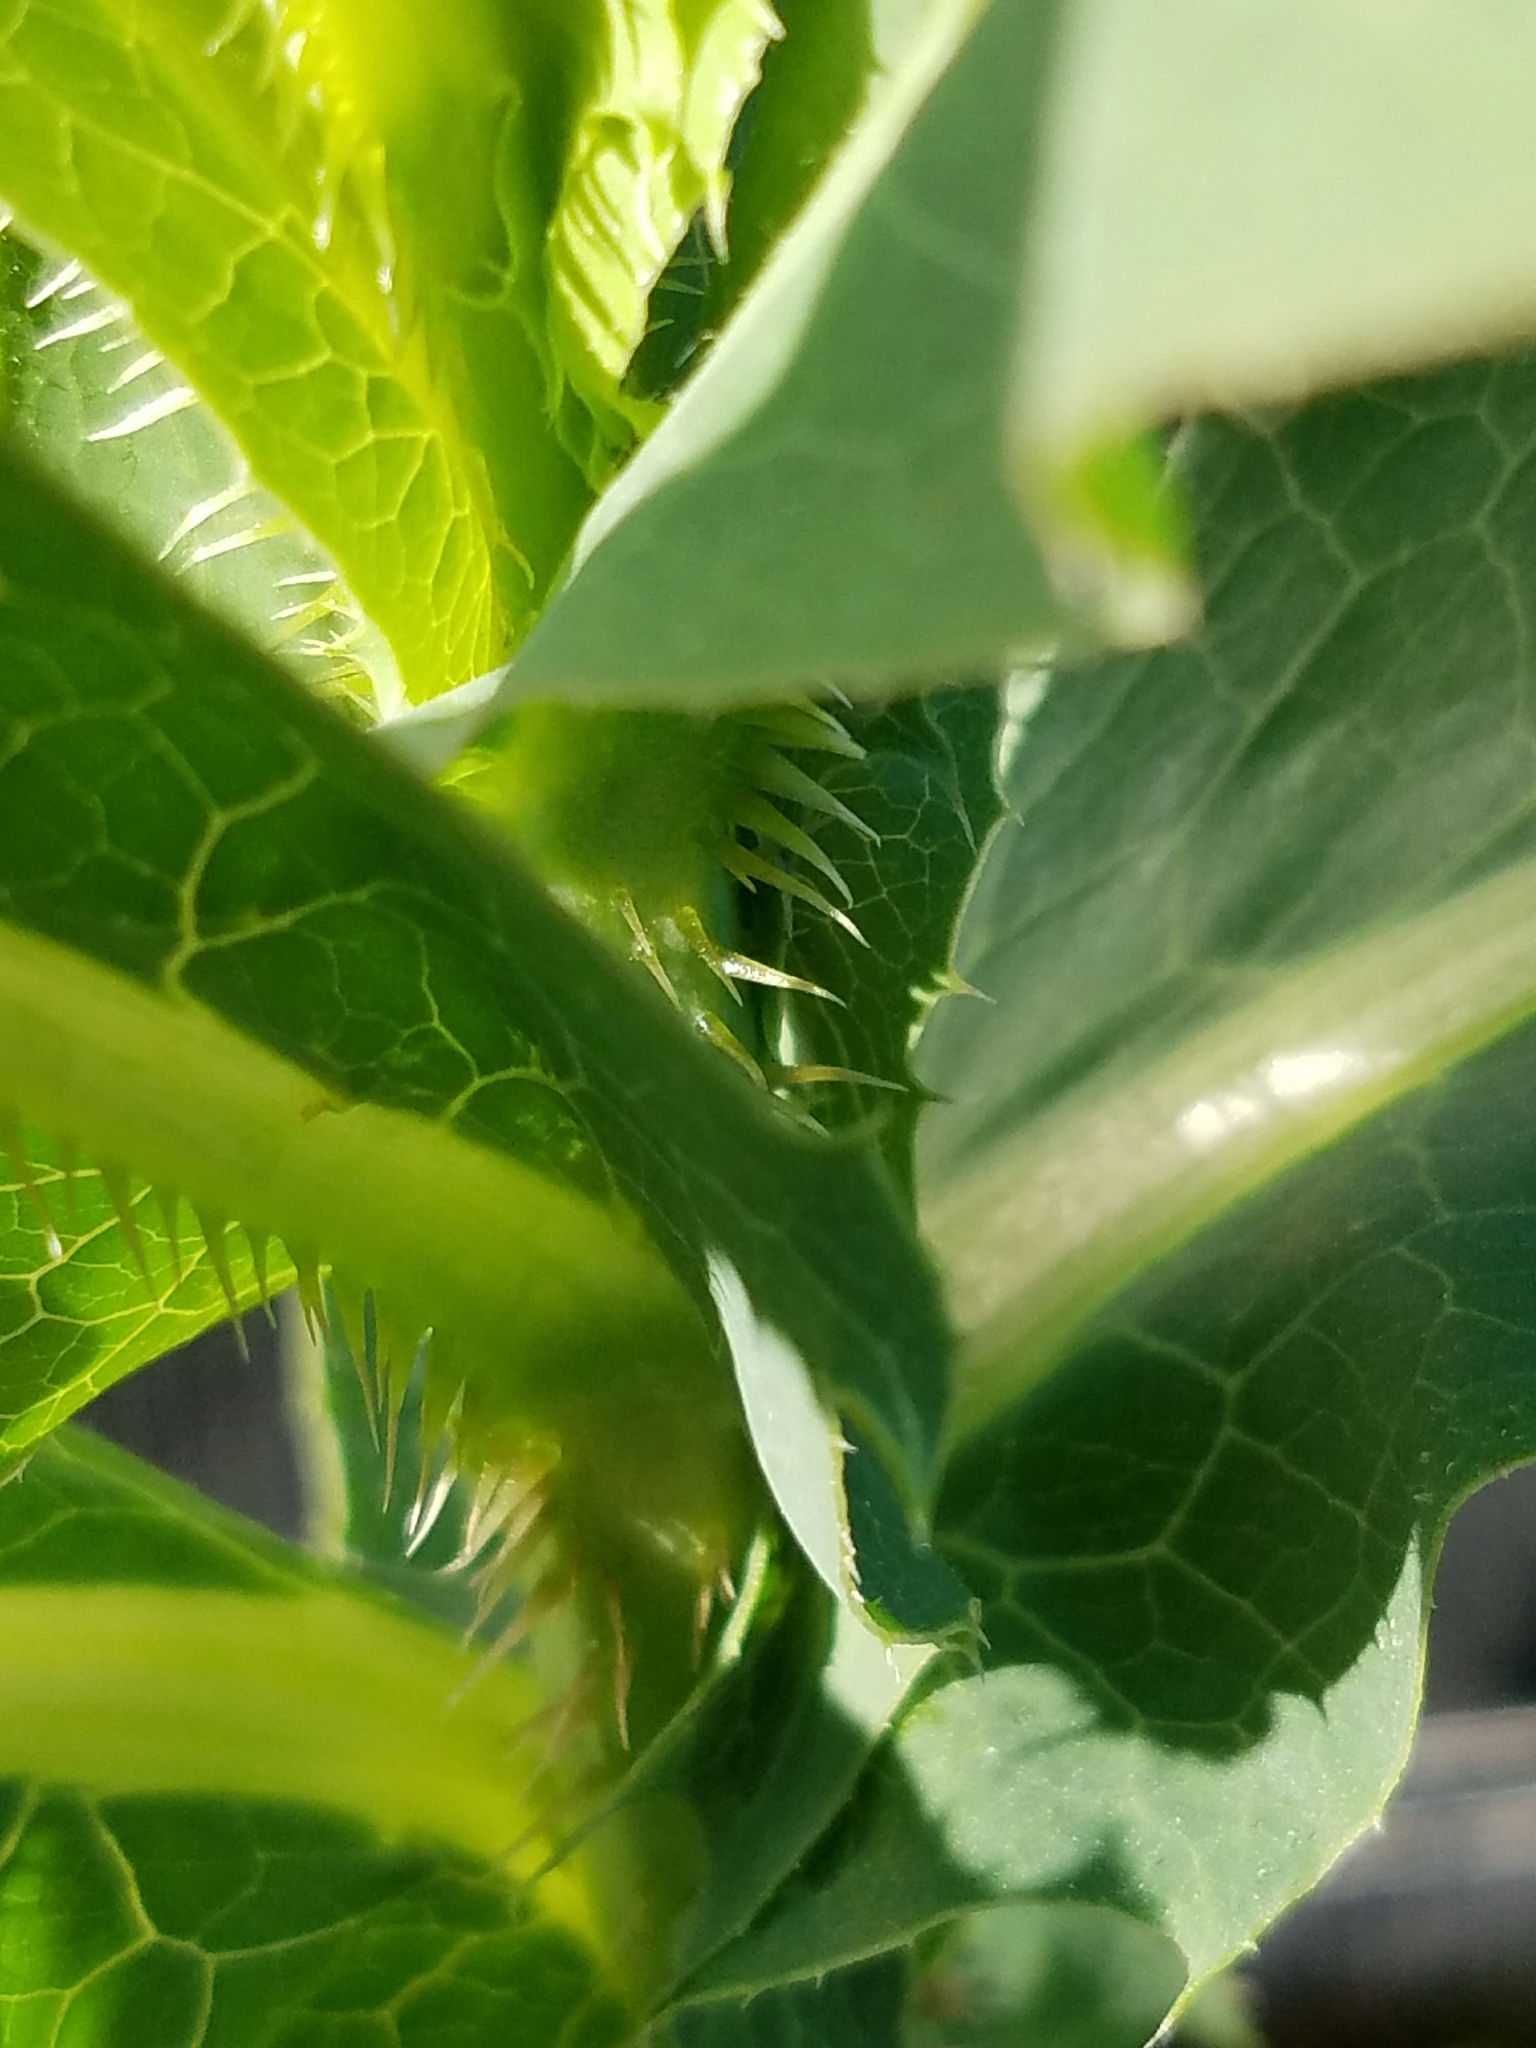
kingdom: Plantae
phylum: Tracheophyta
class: Magnoliopsida
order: Asterales
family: Asteraceae
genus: Lactuca
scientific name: Lactuca serriola
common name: Prickly lettuce
